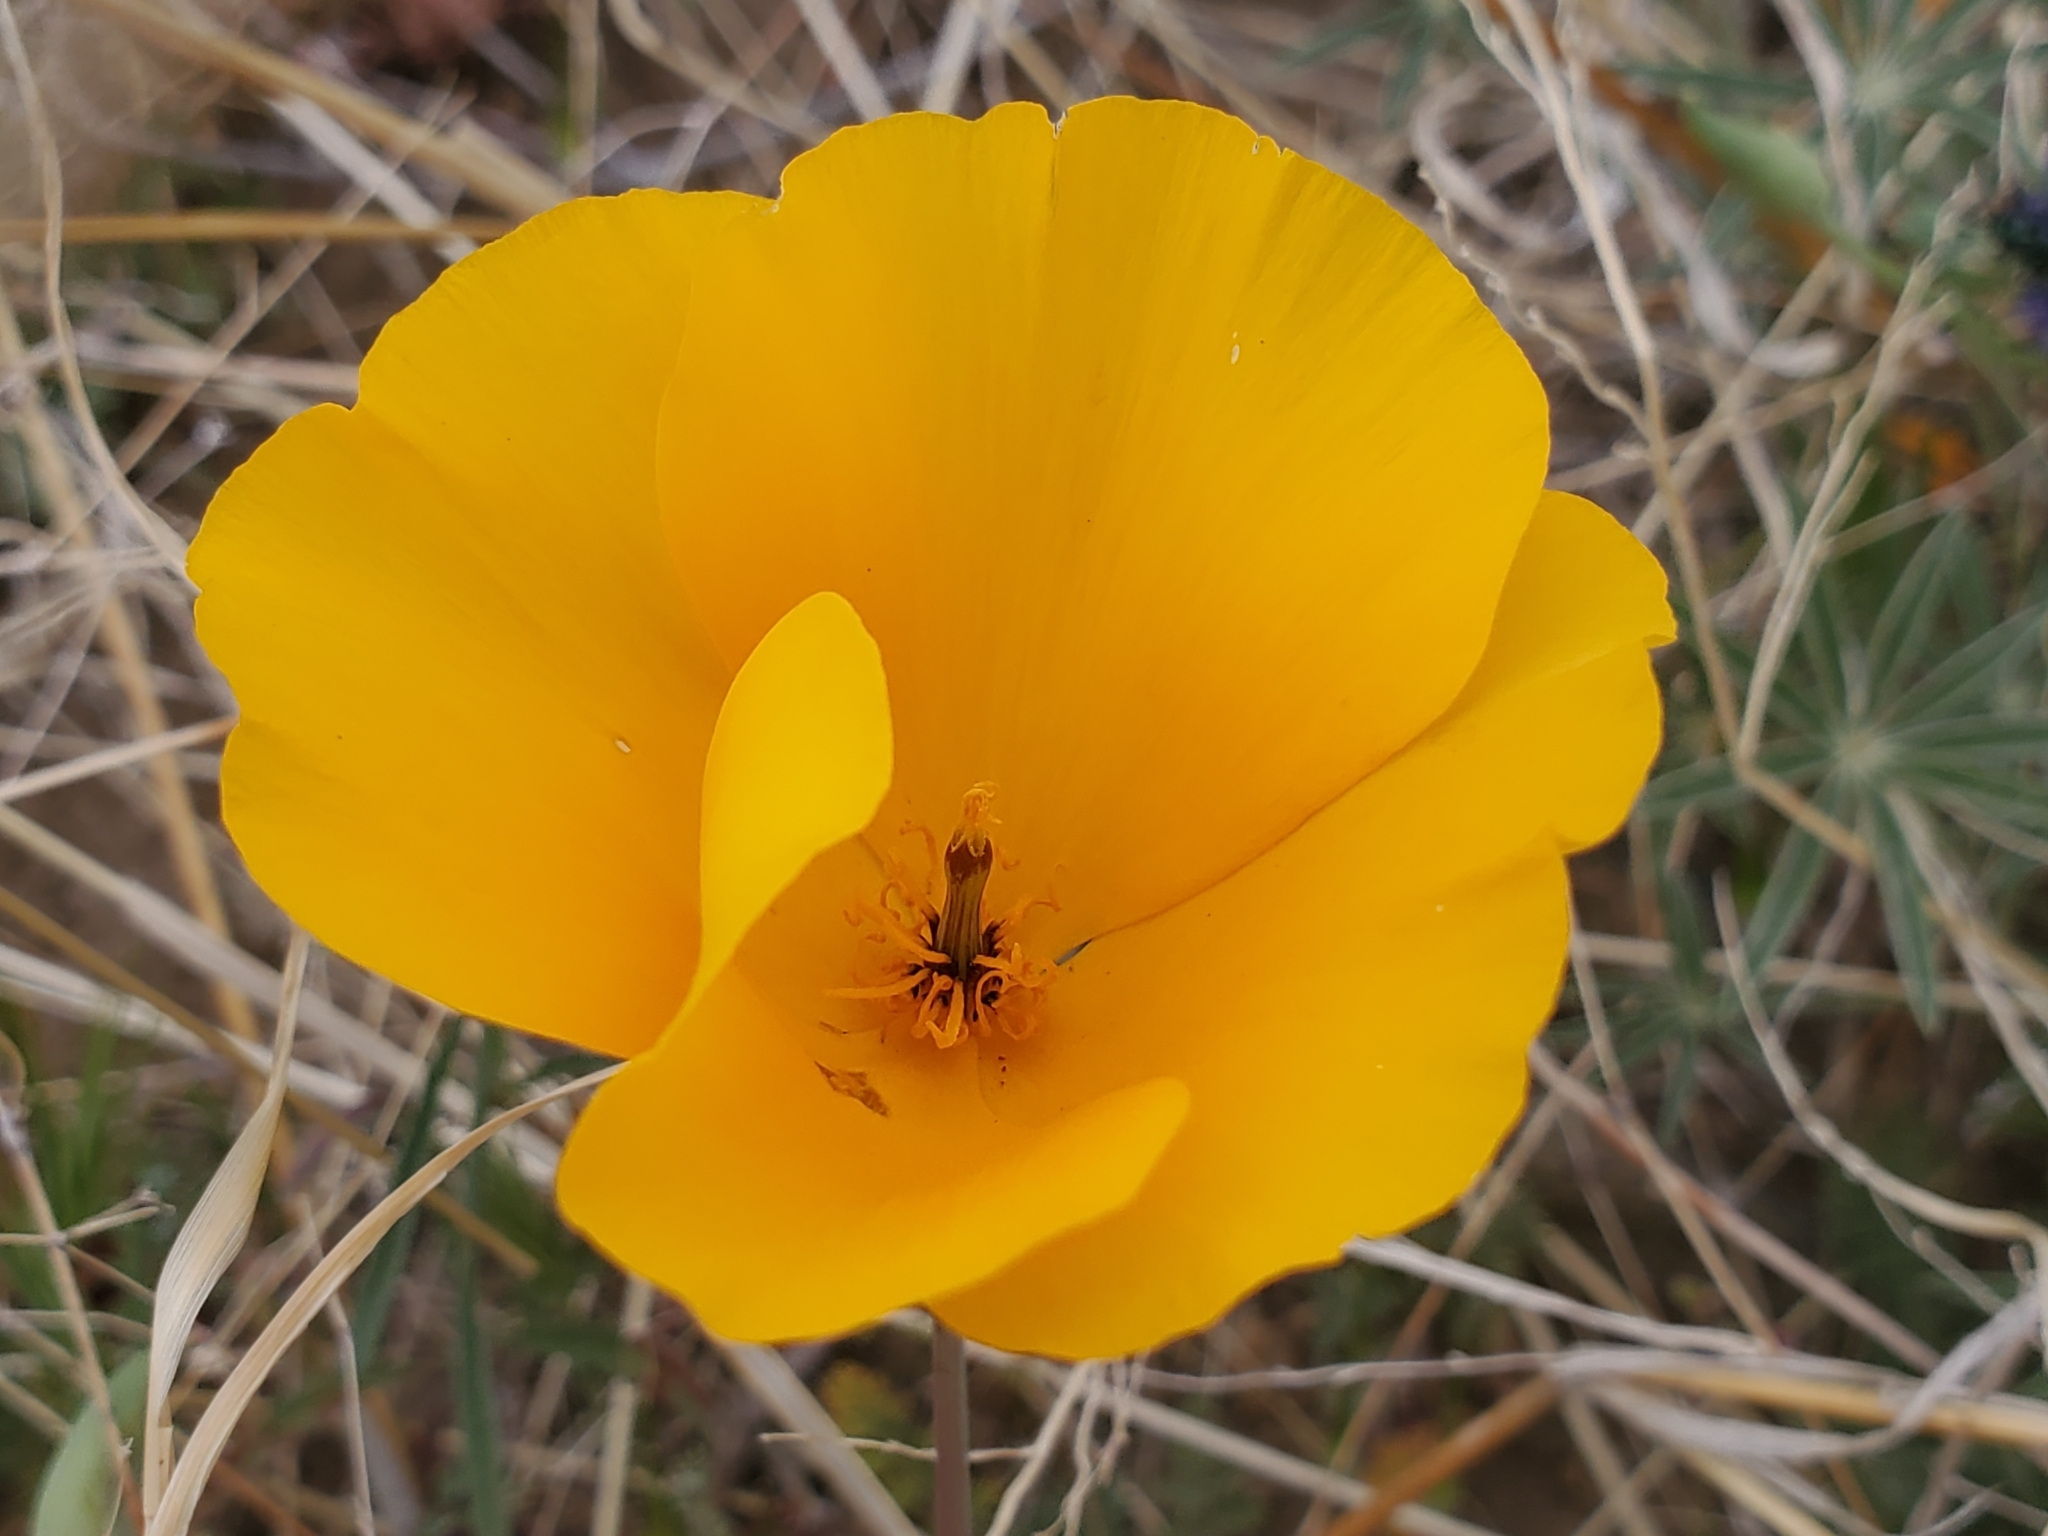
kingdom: Plantae
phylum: Tracheophyta
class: Magnoliopsida
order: Ranunculales
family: Papaveraceae
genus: Eschscholzia
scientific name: Eschscholzia californica
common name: California poppy
